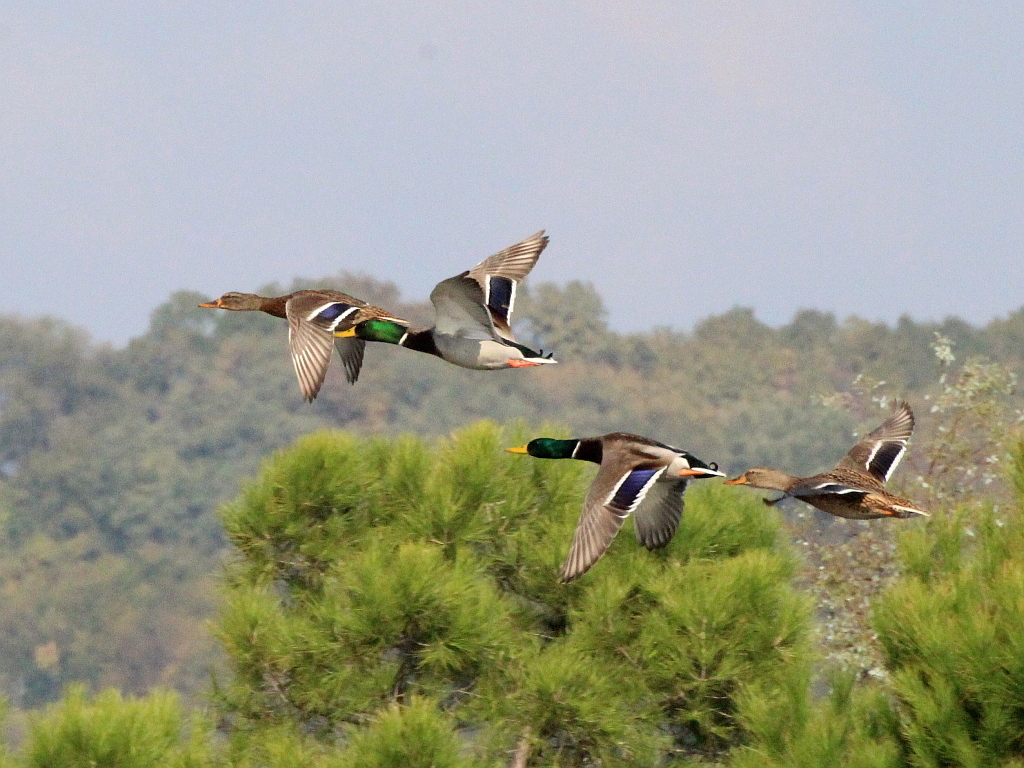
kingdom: Animalia
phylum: Chordata
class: Aves
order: Anseriformes
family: Anatidae
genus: Anas
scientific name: Anas platyrhynchos
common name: Mallard
